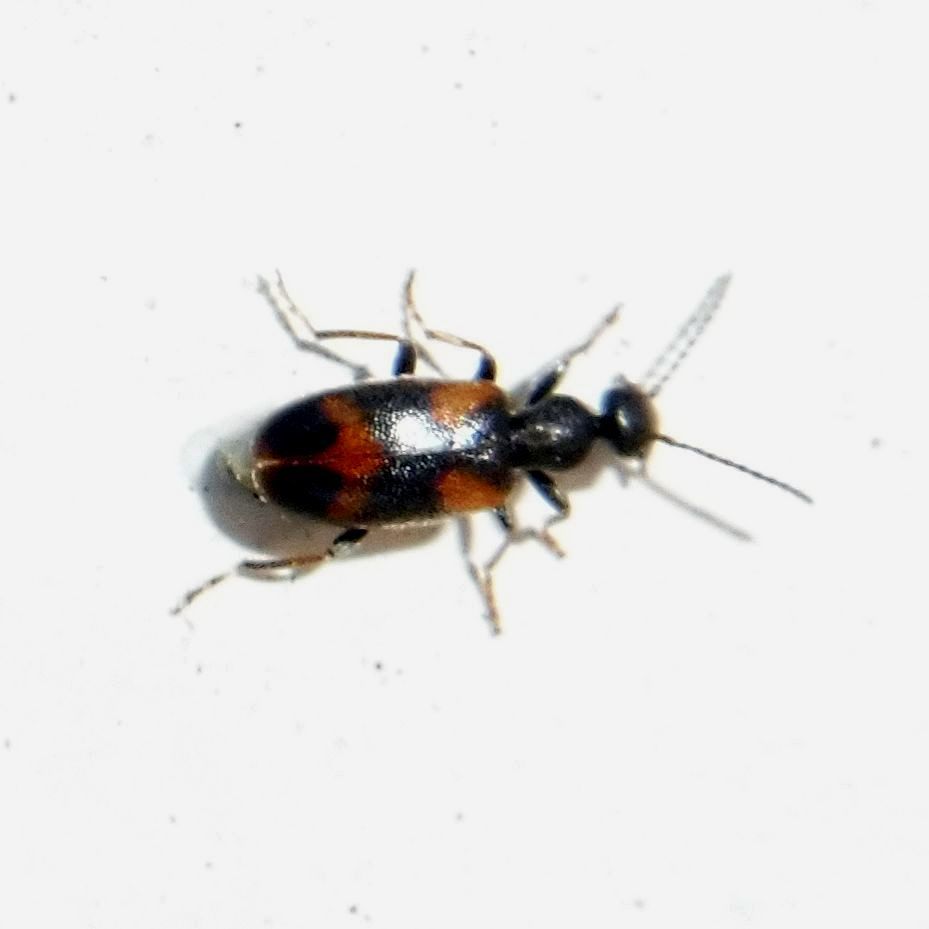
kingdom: Animalia
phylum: Arthropoda
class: Insecta
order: Coleoptera
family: Anthicidae
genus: Anthicus
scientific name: Anthicus antherinus
